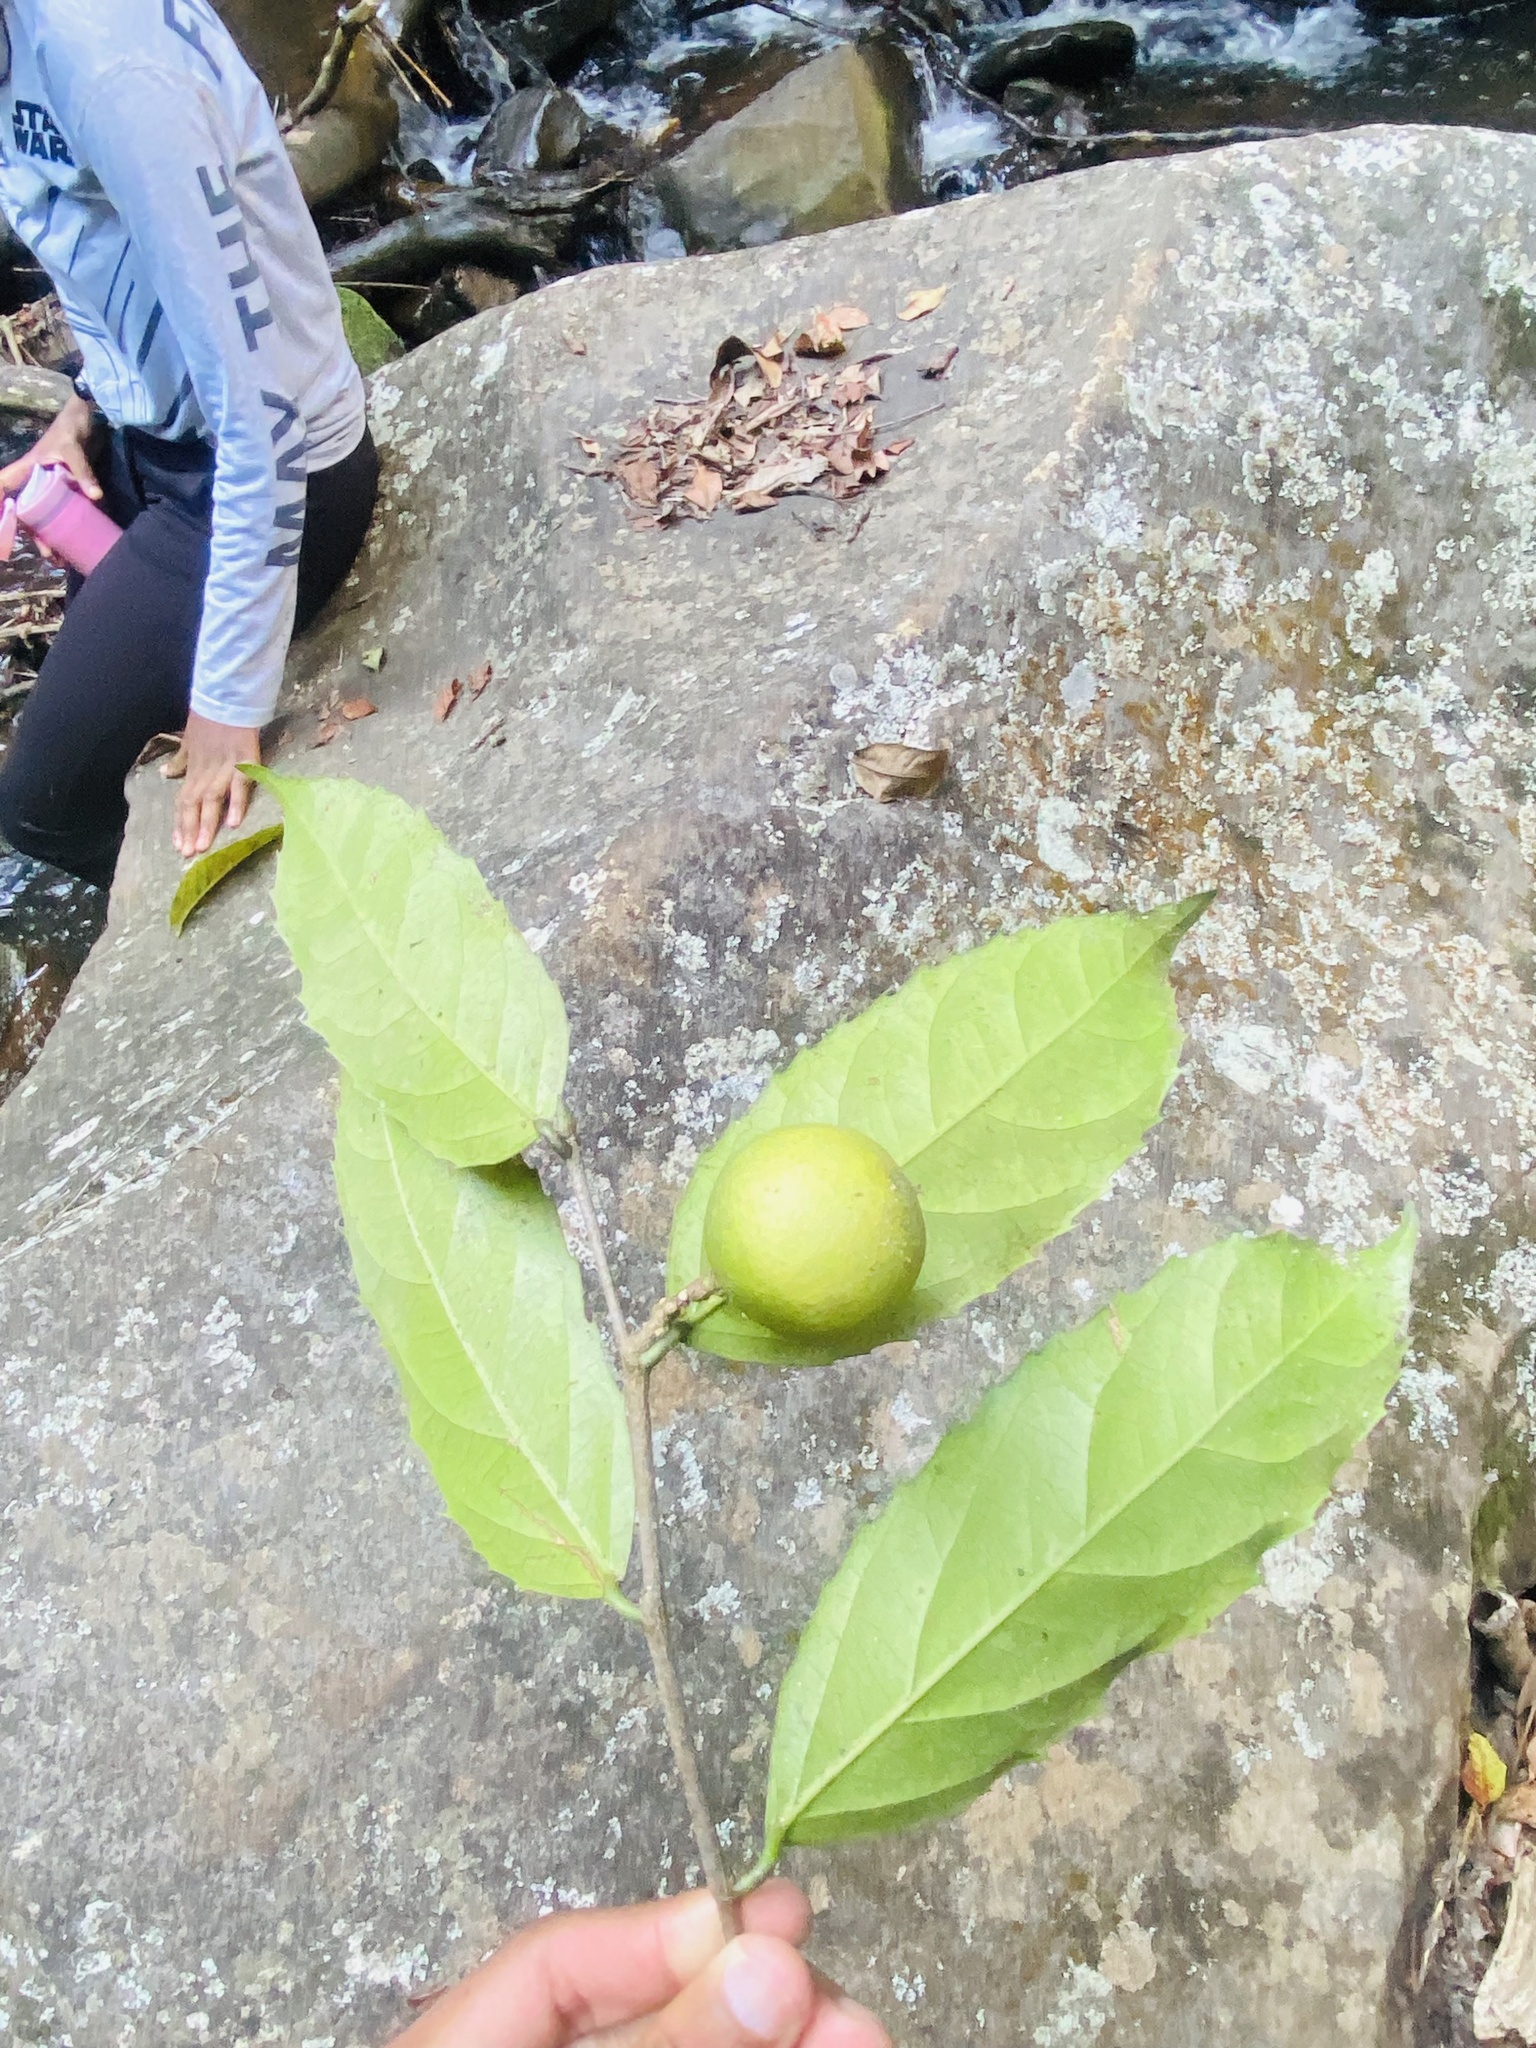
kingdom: Plantae
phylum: Tracheophyta
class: Magnoliopsida
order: Malpighiales
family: Achariaceae
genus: Rawsonia
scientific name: Rawsonia lucida
